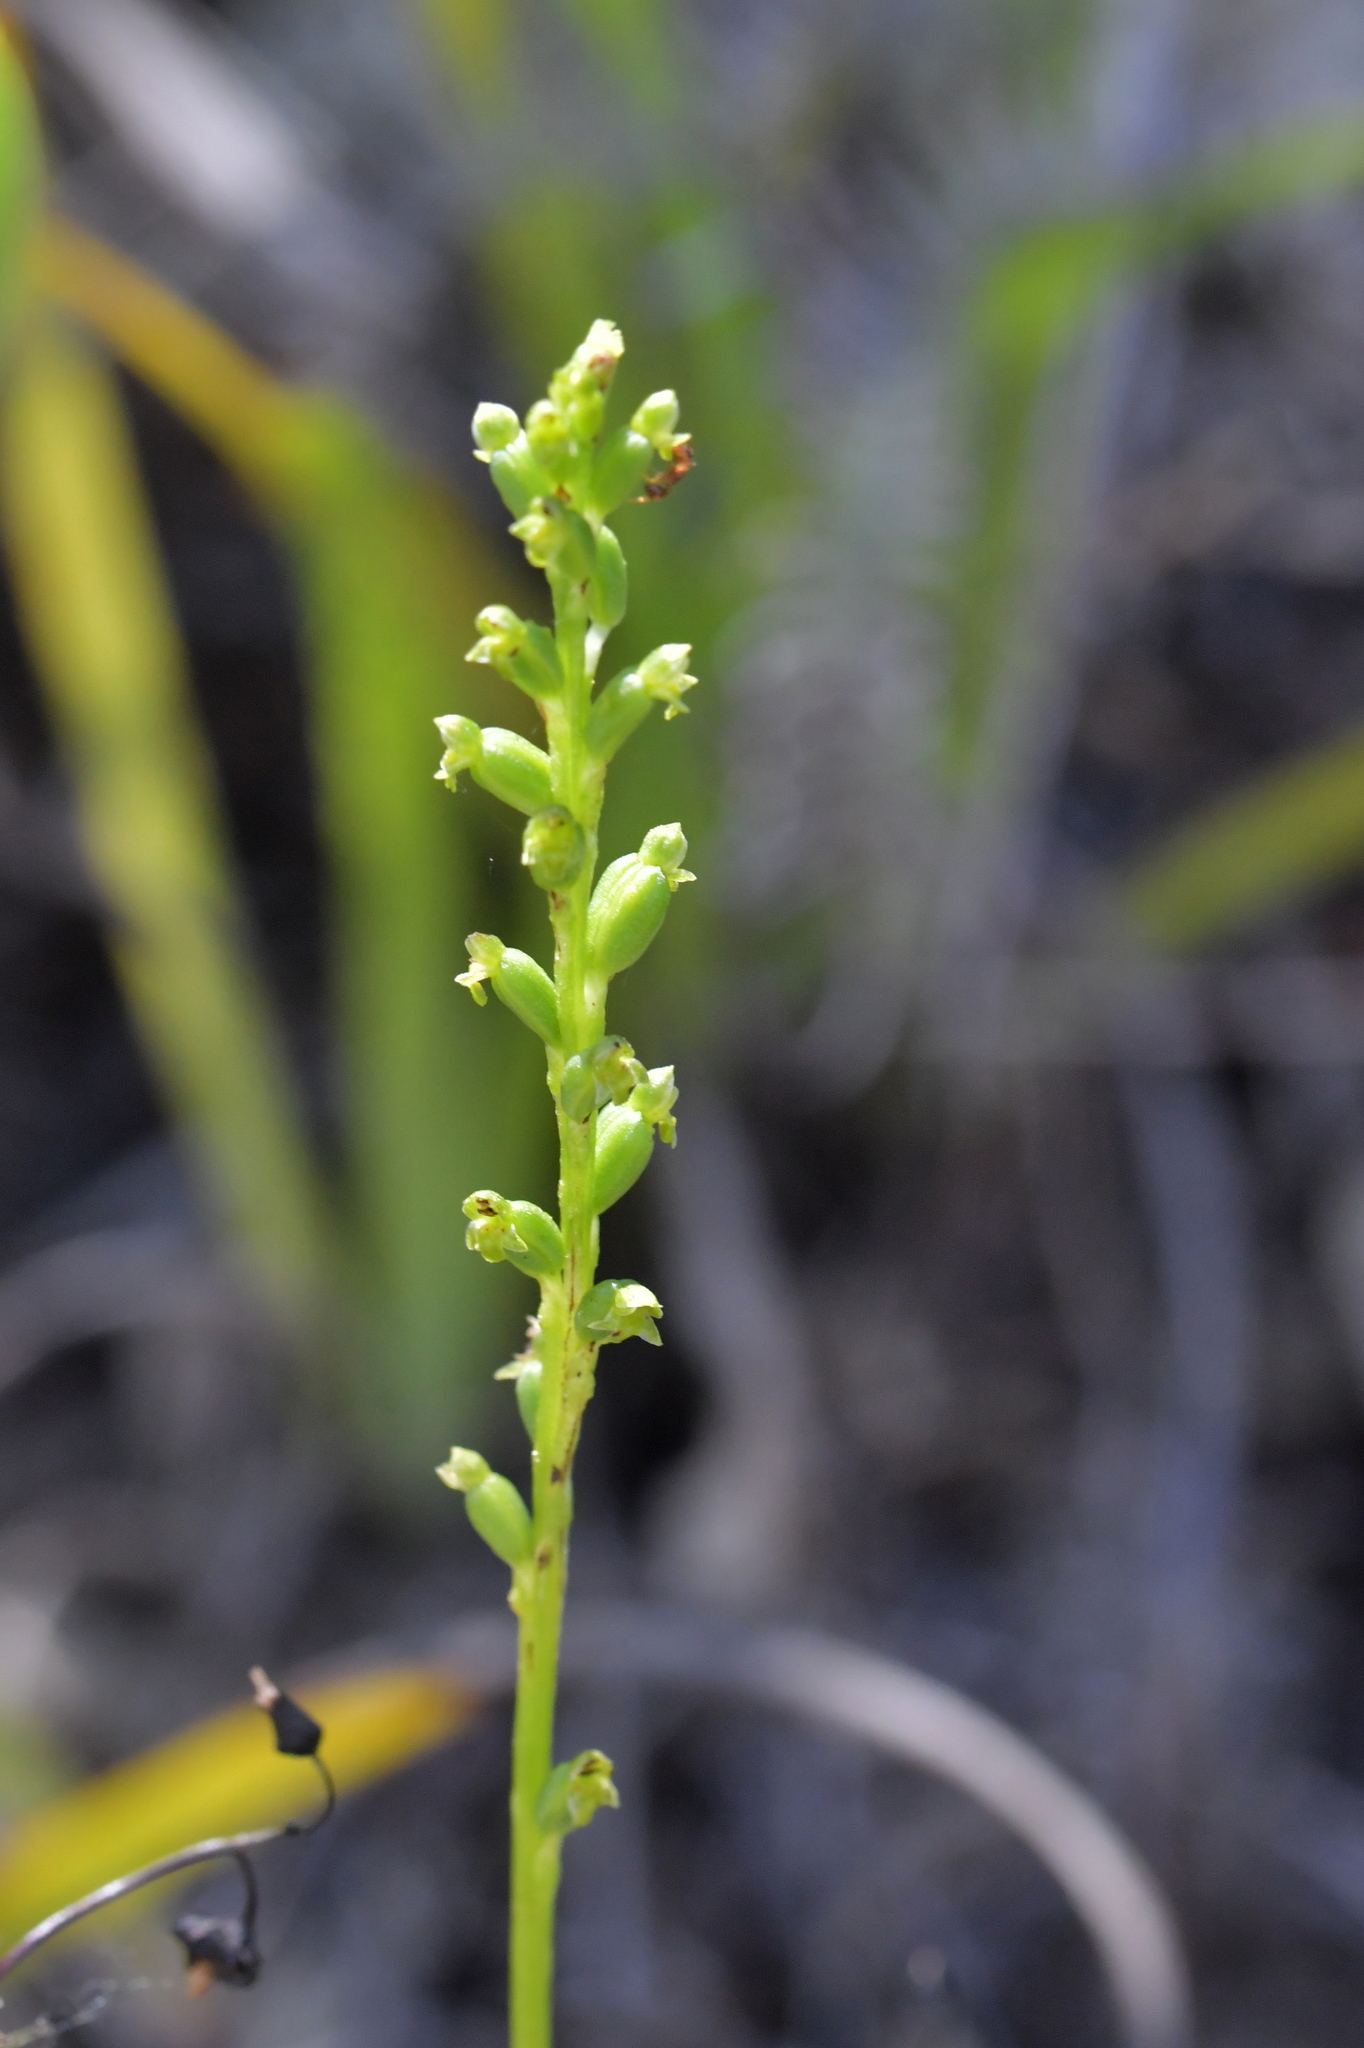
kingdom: Plantae
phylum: Tracheophyta
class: Liliopsida
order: Asparagales
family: Orchidaceae
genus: Microtis
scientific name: Microtis unifolia
